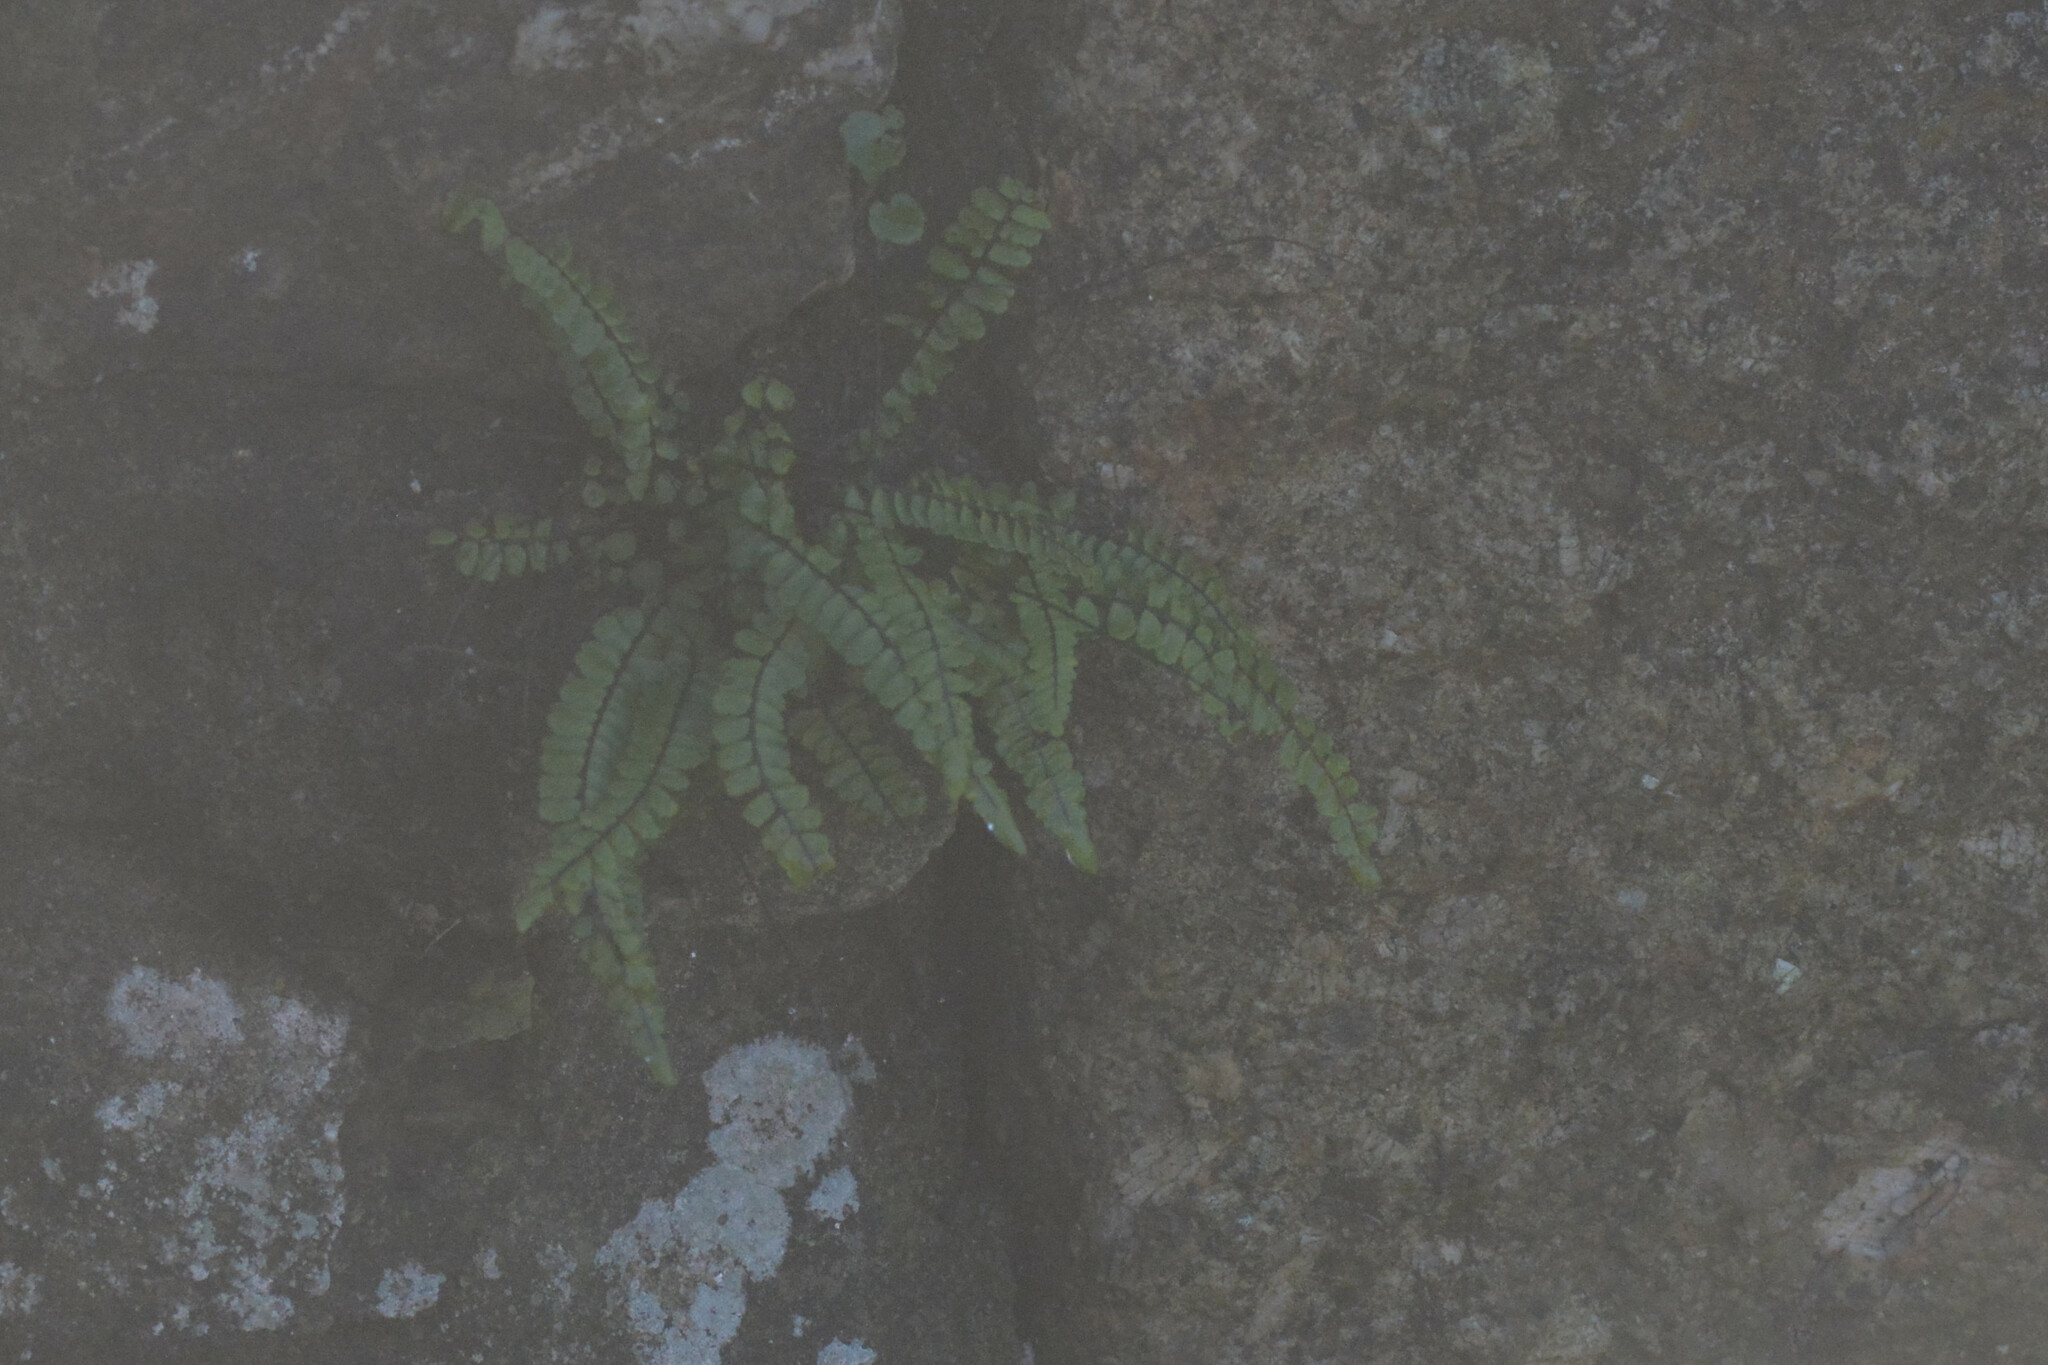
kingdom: Plantae
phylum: Tracheophyta
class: Polypodiopsida
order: Polypodiales
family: Aspleniaceae
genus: Asplenium
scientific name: Asplenium trichomanes
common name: Maidenhair spleenwort
